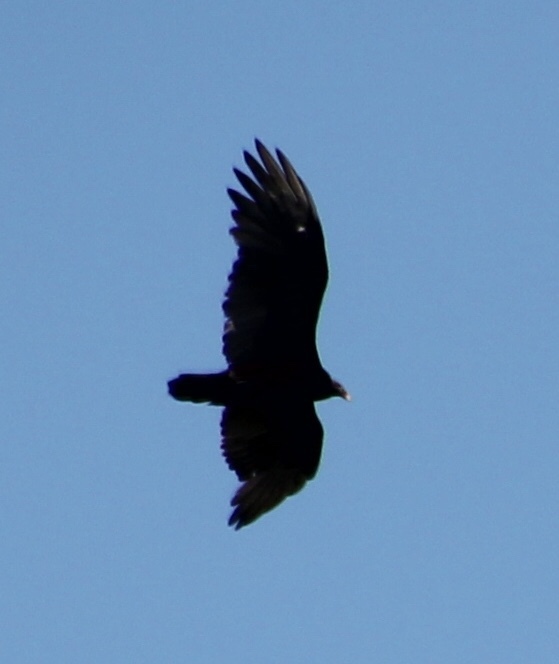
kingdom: Animalia
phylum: Chordata
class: Aves
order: Accipitriformes
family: Cathartidae
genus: Cathartes
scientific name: Cathartes aura
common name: Turkey vulture
